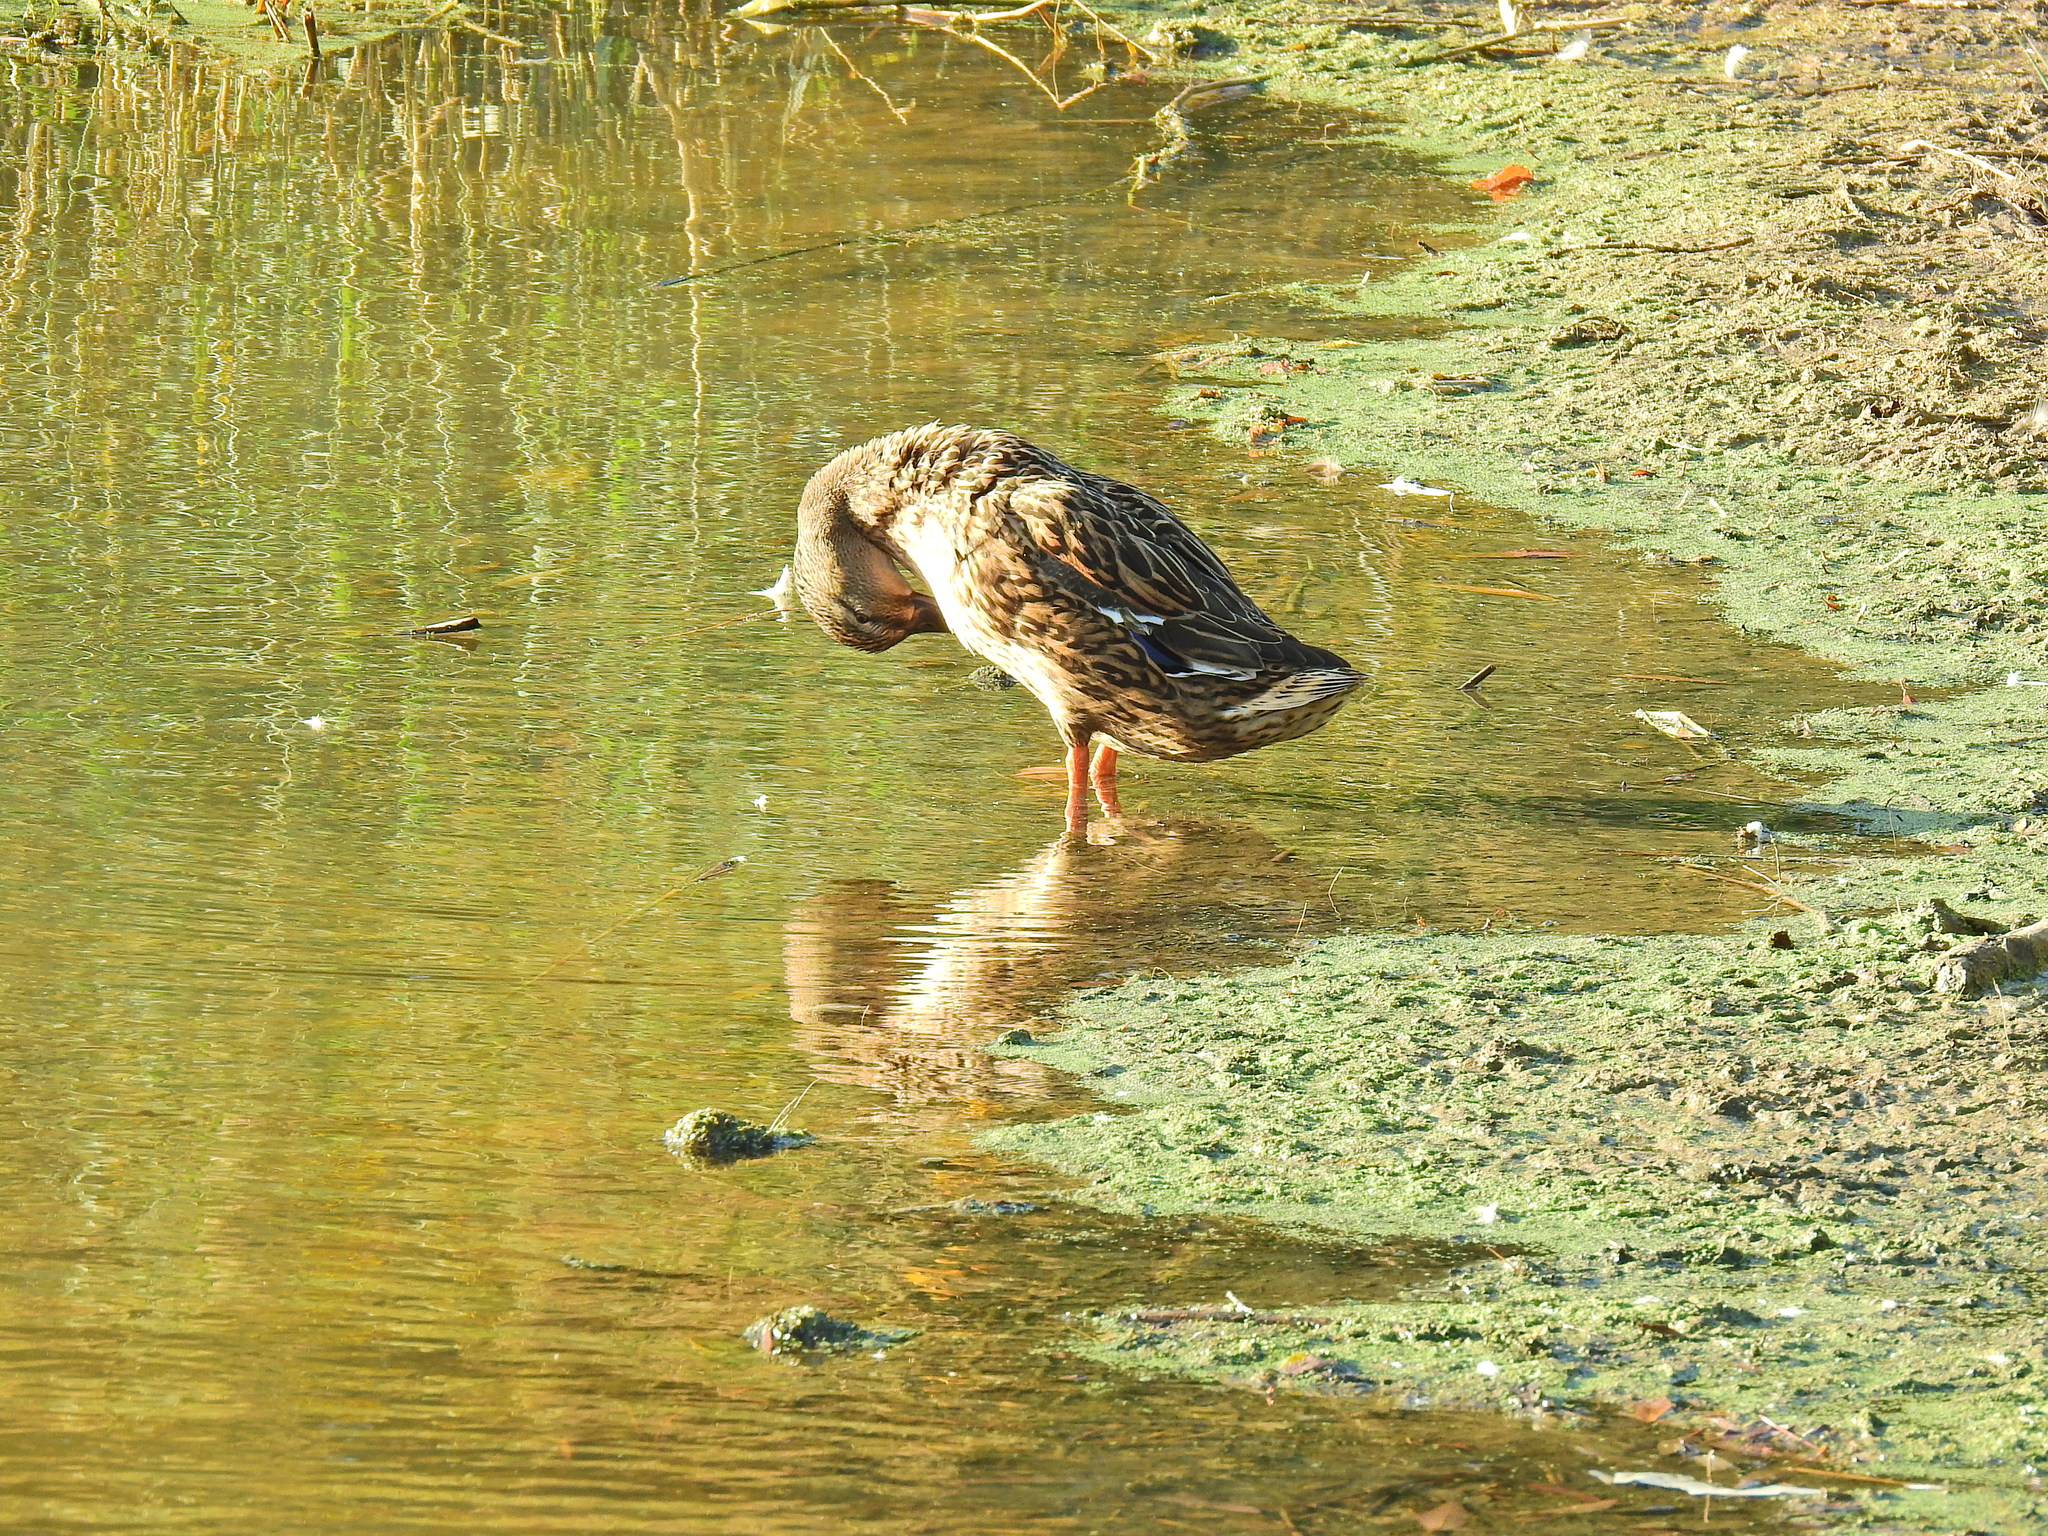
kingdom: Animalia
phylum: Chordata
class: Aves
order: Anseriformes
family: Anatidae
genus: Anas
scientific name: Anas platyrhynchos
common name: Mallard
